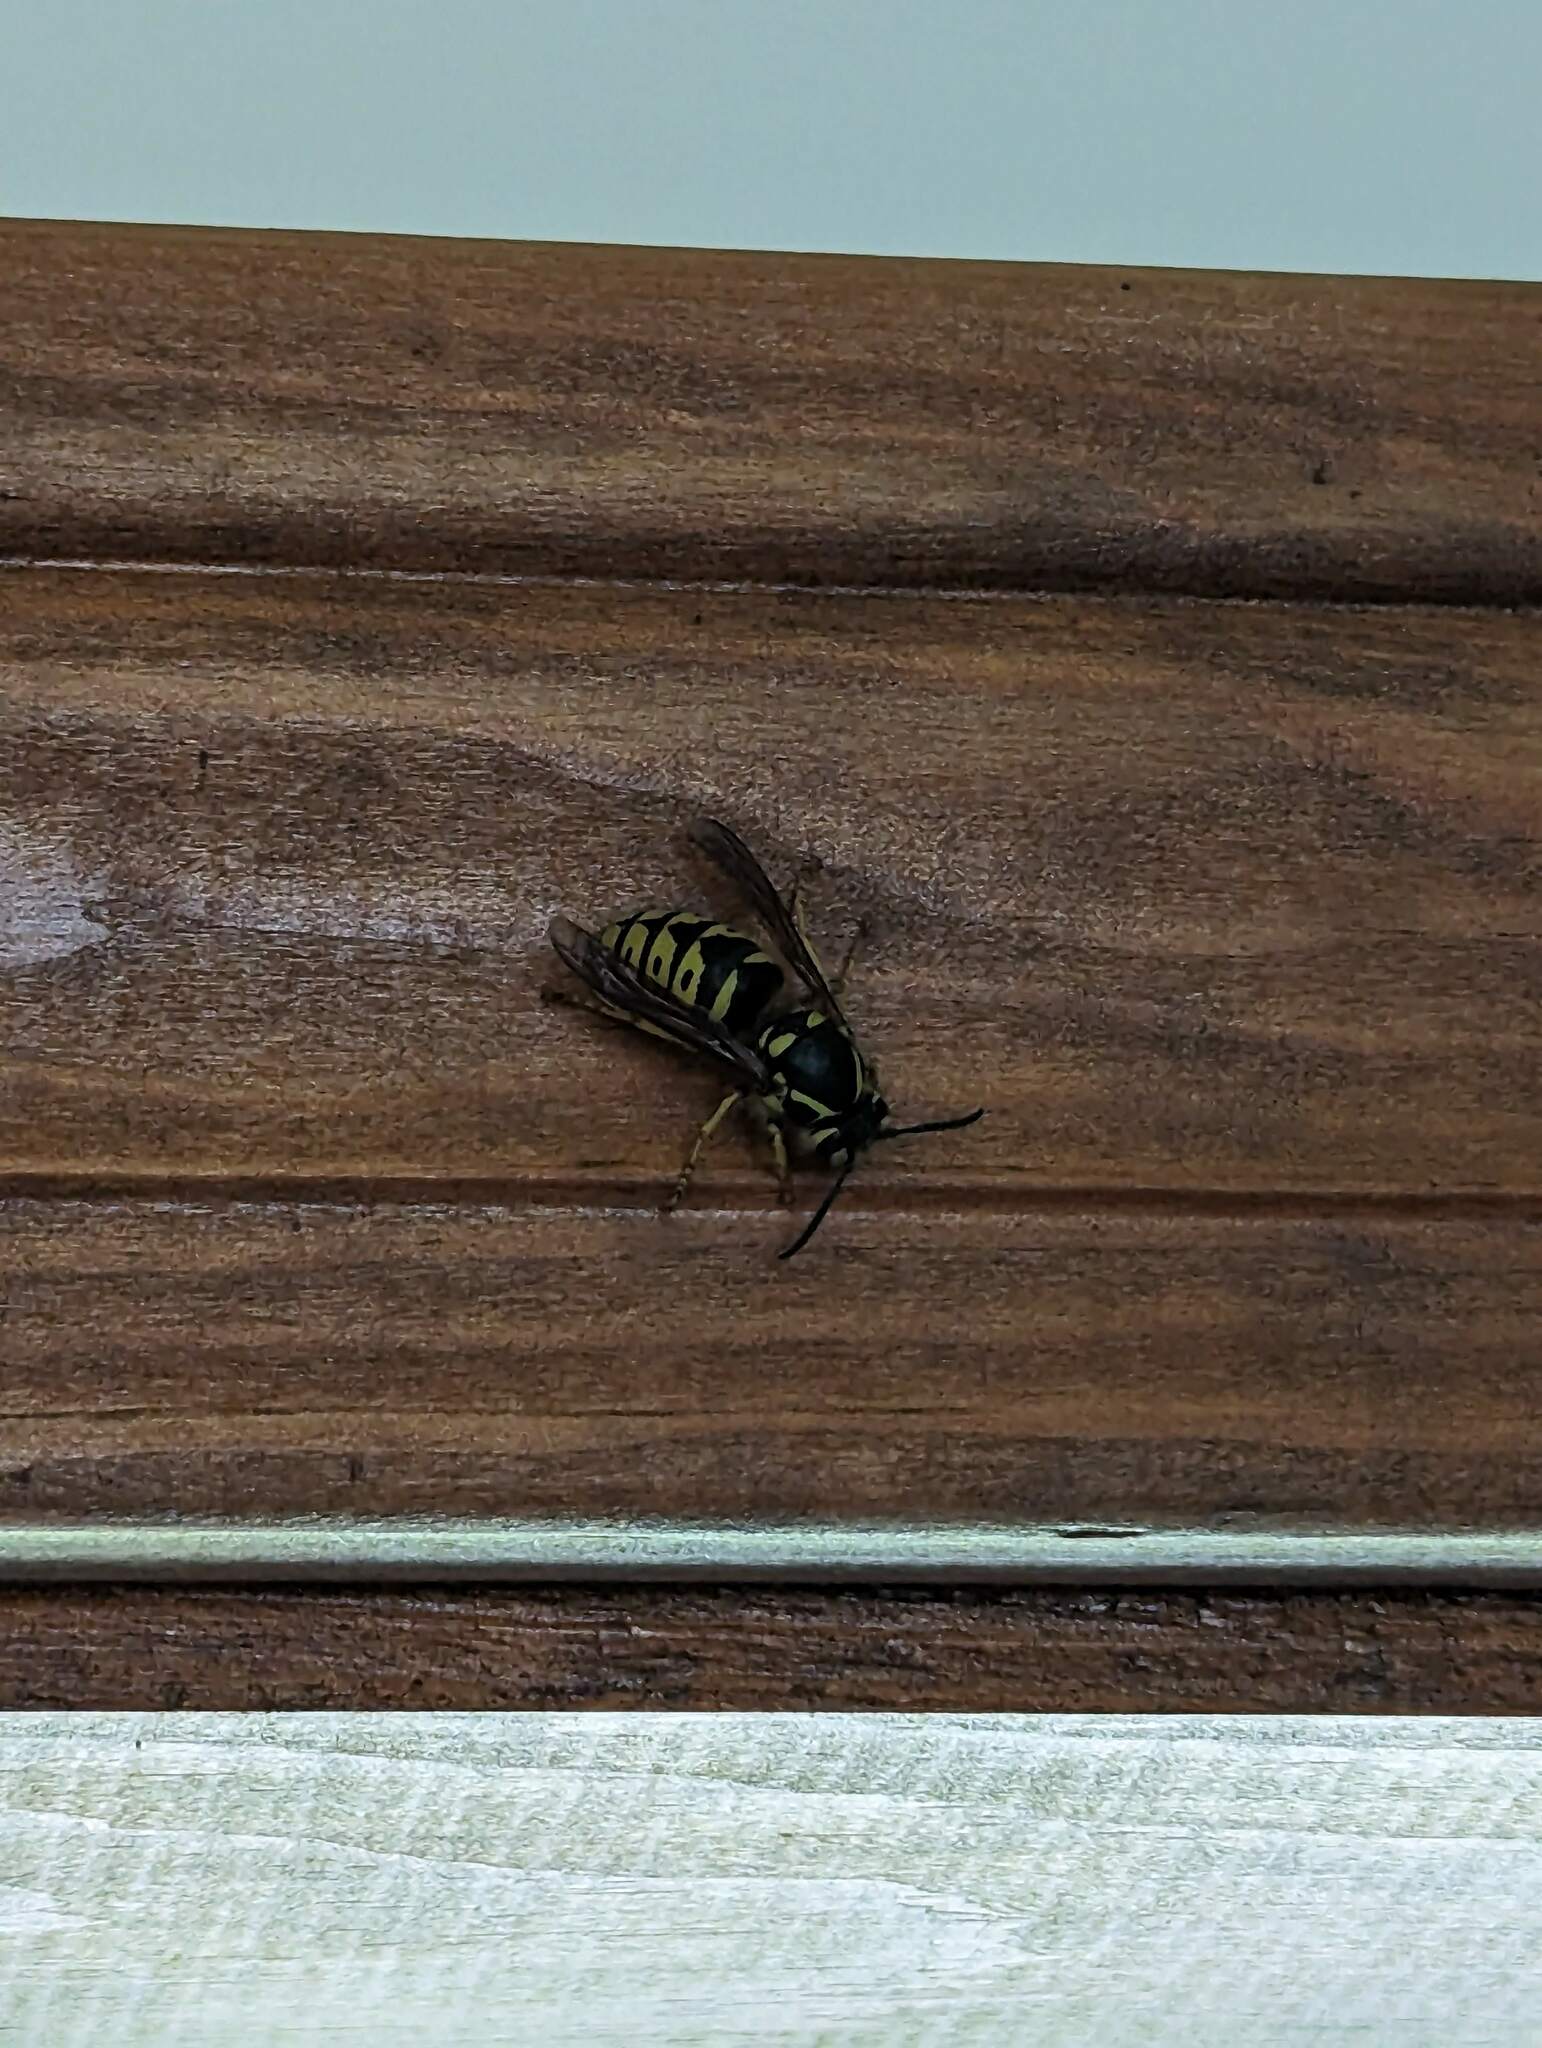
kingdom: Animalia
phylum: Arthropoda
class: Insecta
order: Hymenoptera
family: Vespidae
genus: Dolichovespula
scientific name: Dolichovespula arenaria
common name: Aerial yellowjacket
